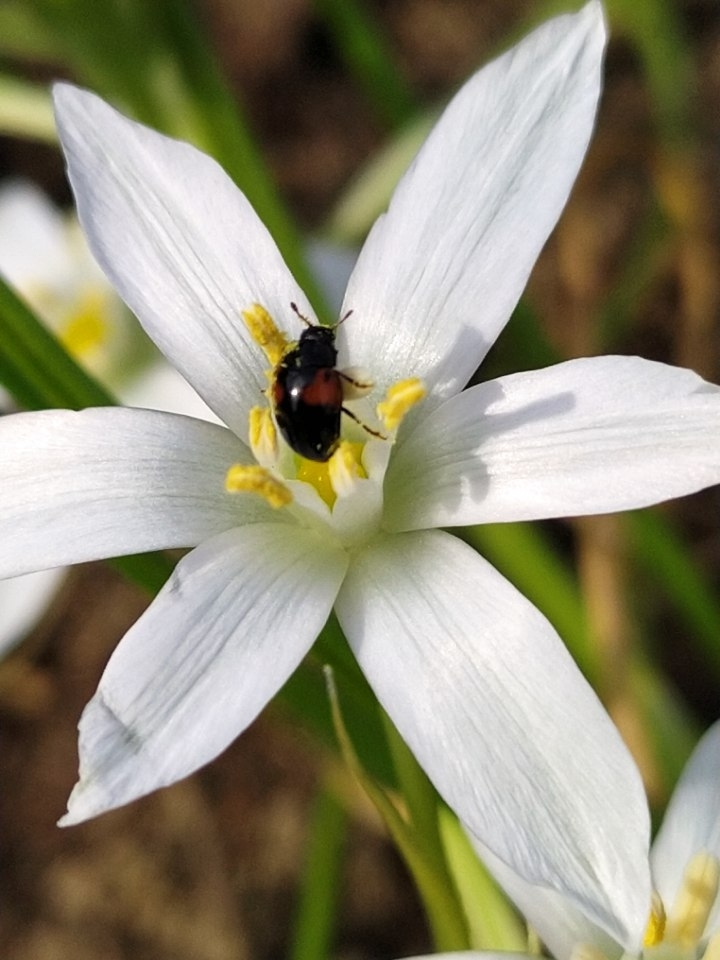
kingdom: Animalia
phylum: Arthropoda
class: Insecta
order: Coleoptera
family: Erotylidae
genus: Tritoma
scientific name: Tritoma bipustulata
